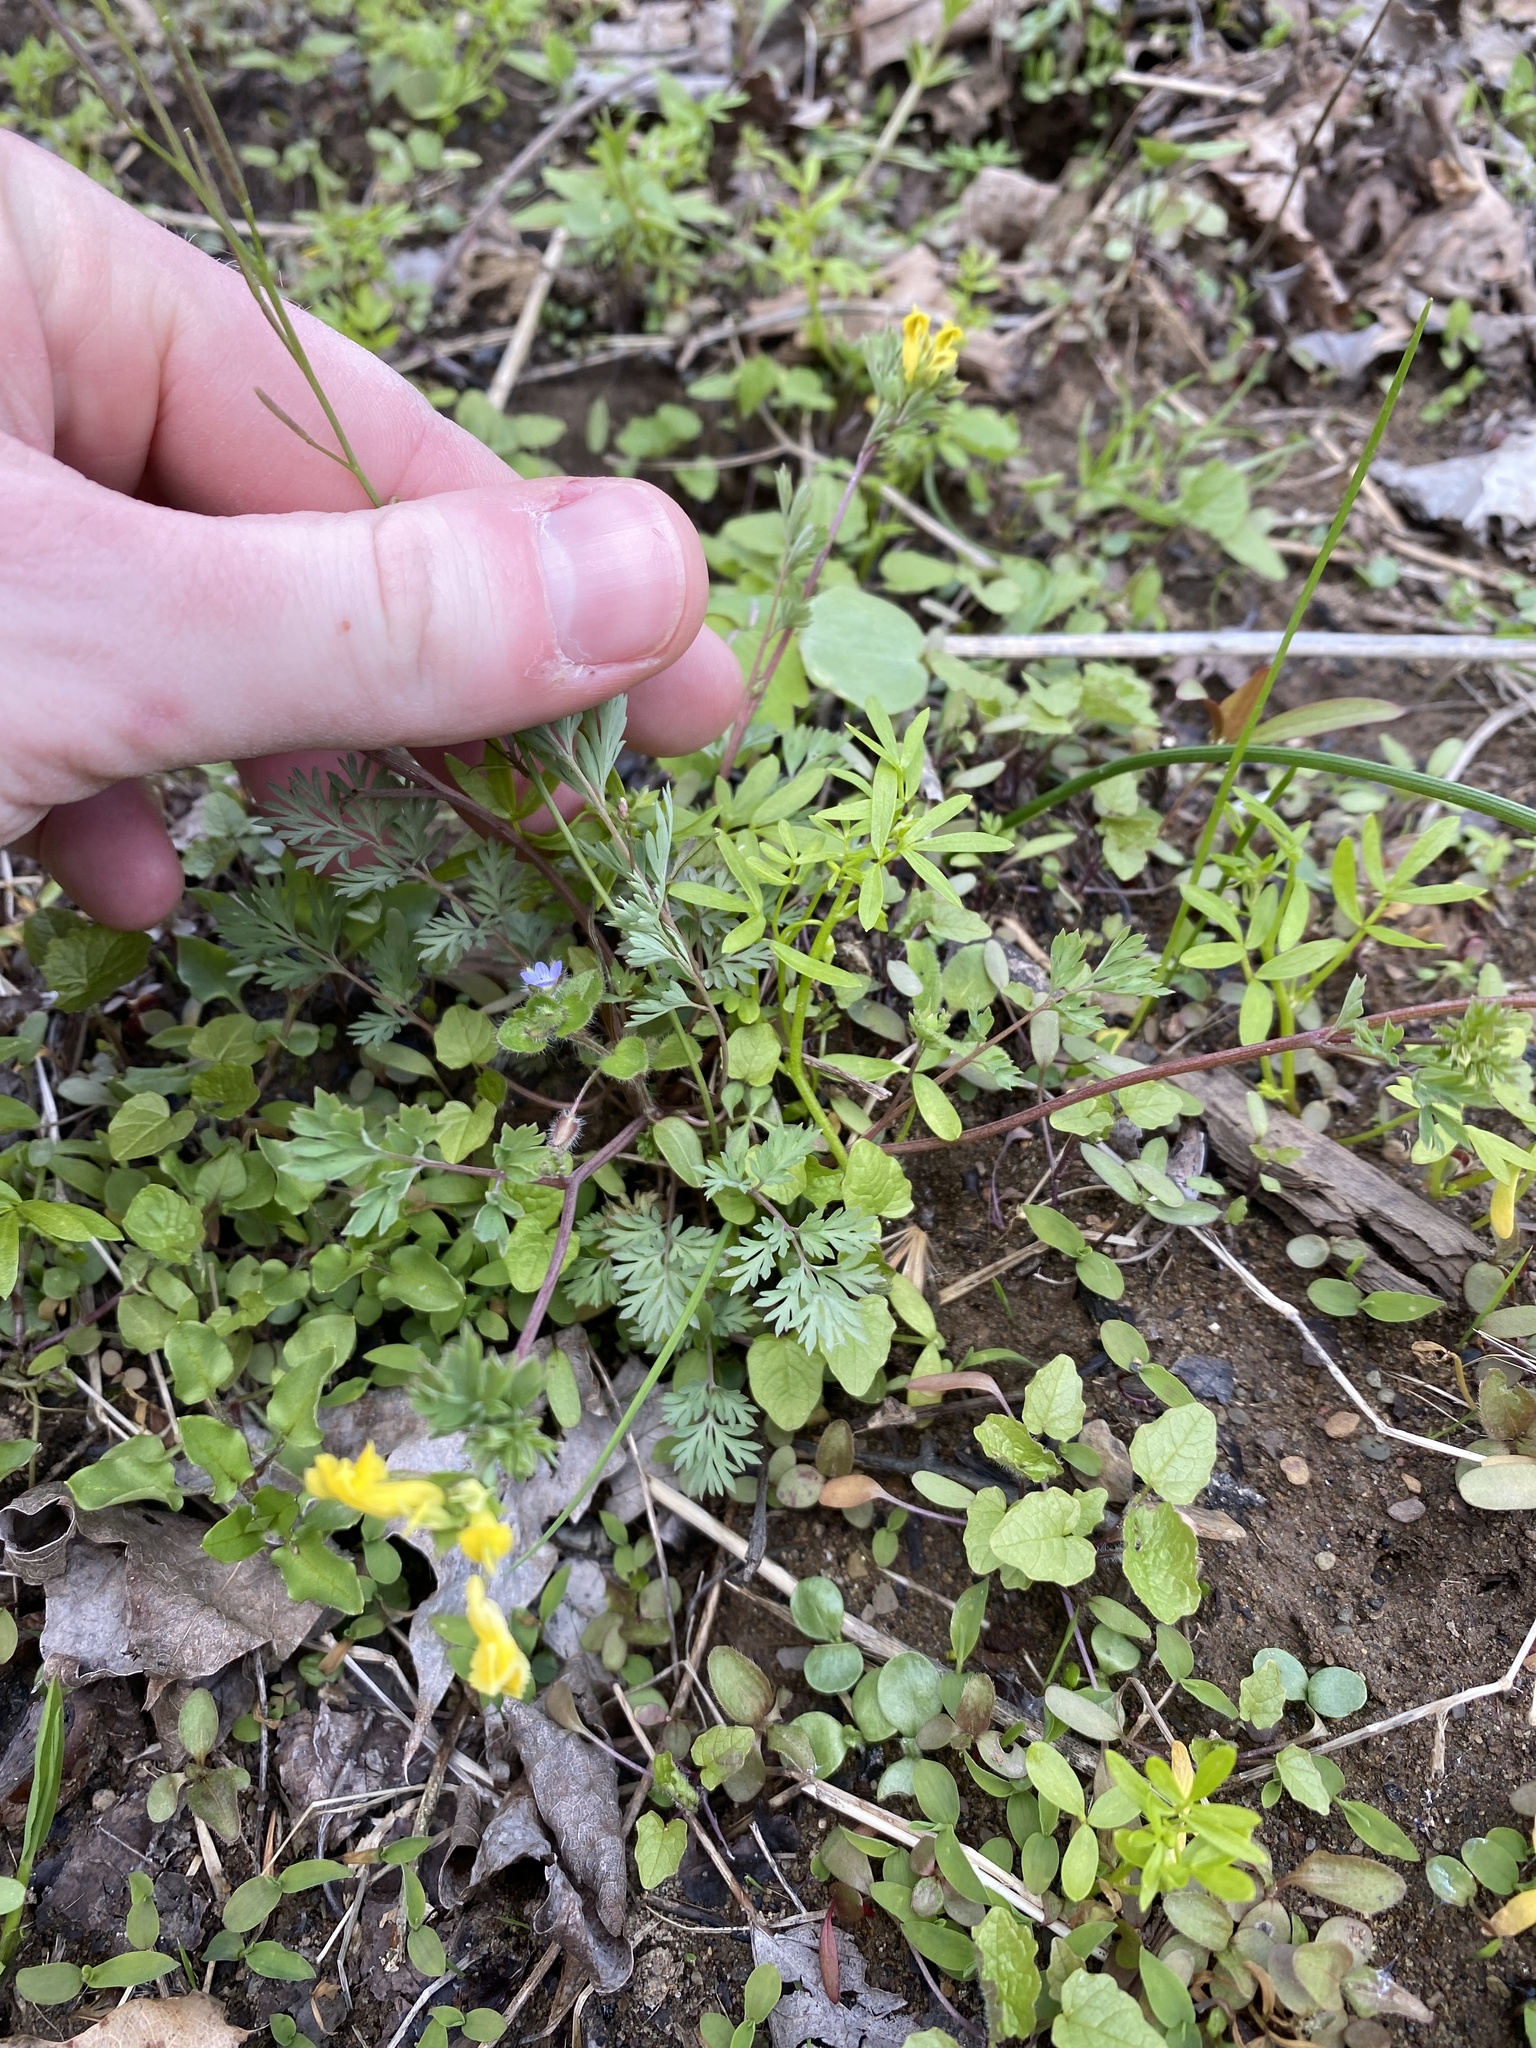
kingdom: Plantae
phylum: Tracheophyta
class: Magnoliopsida
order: Ranunculales
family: Papaveraceae
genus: Corydalis
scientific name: Corydalis flavula
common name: Yellow corydalis
